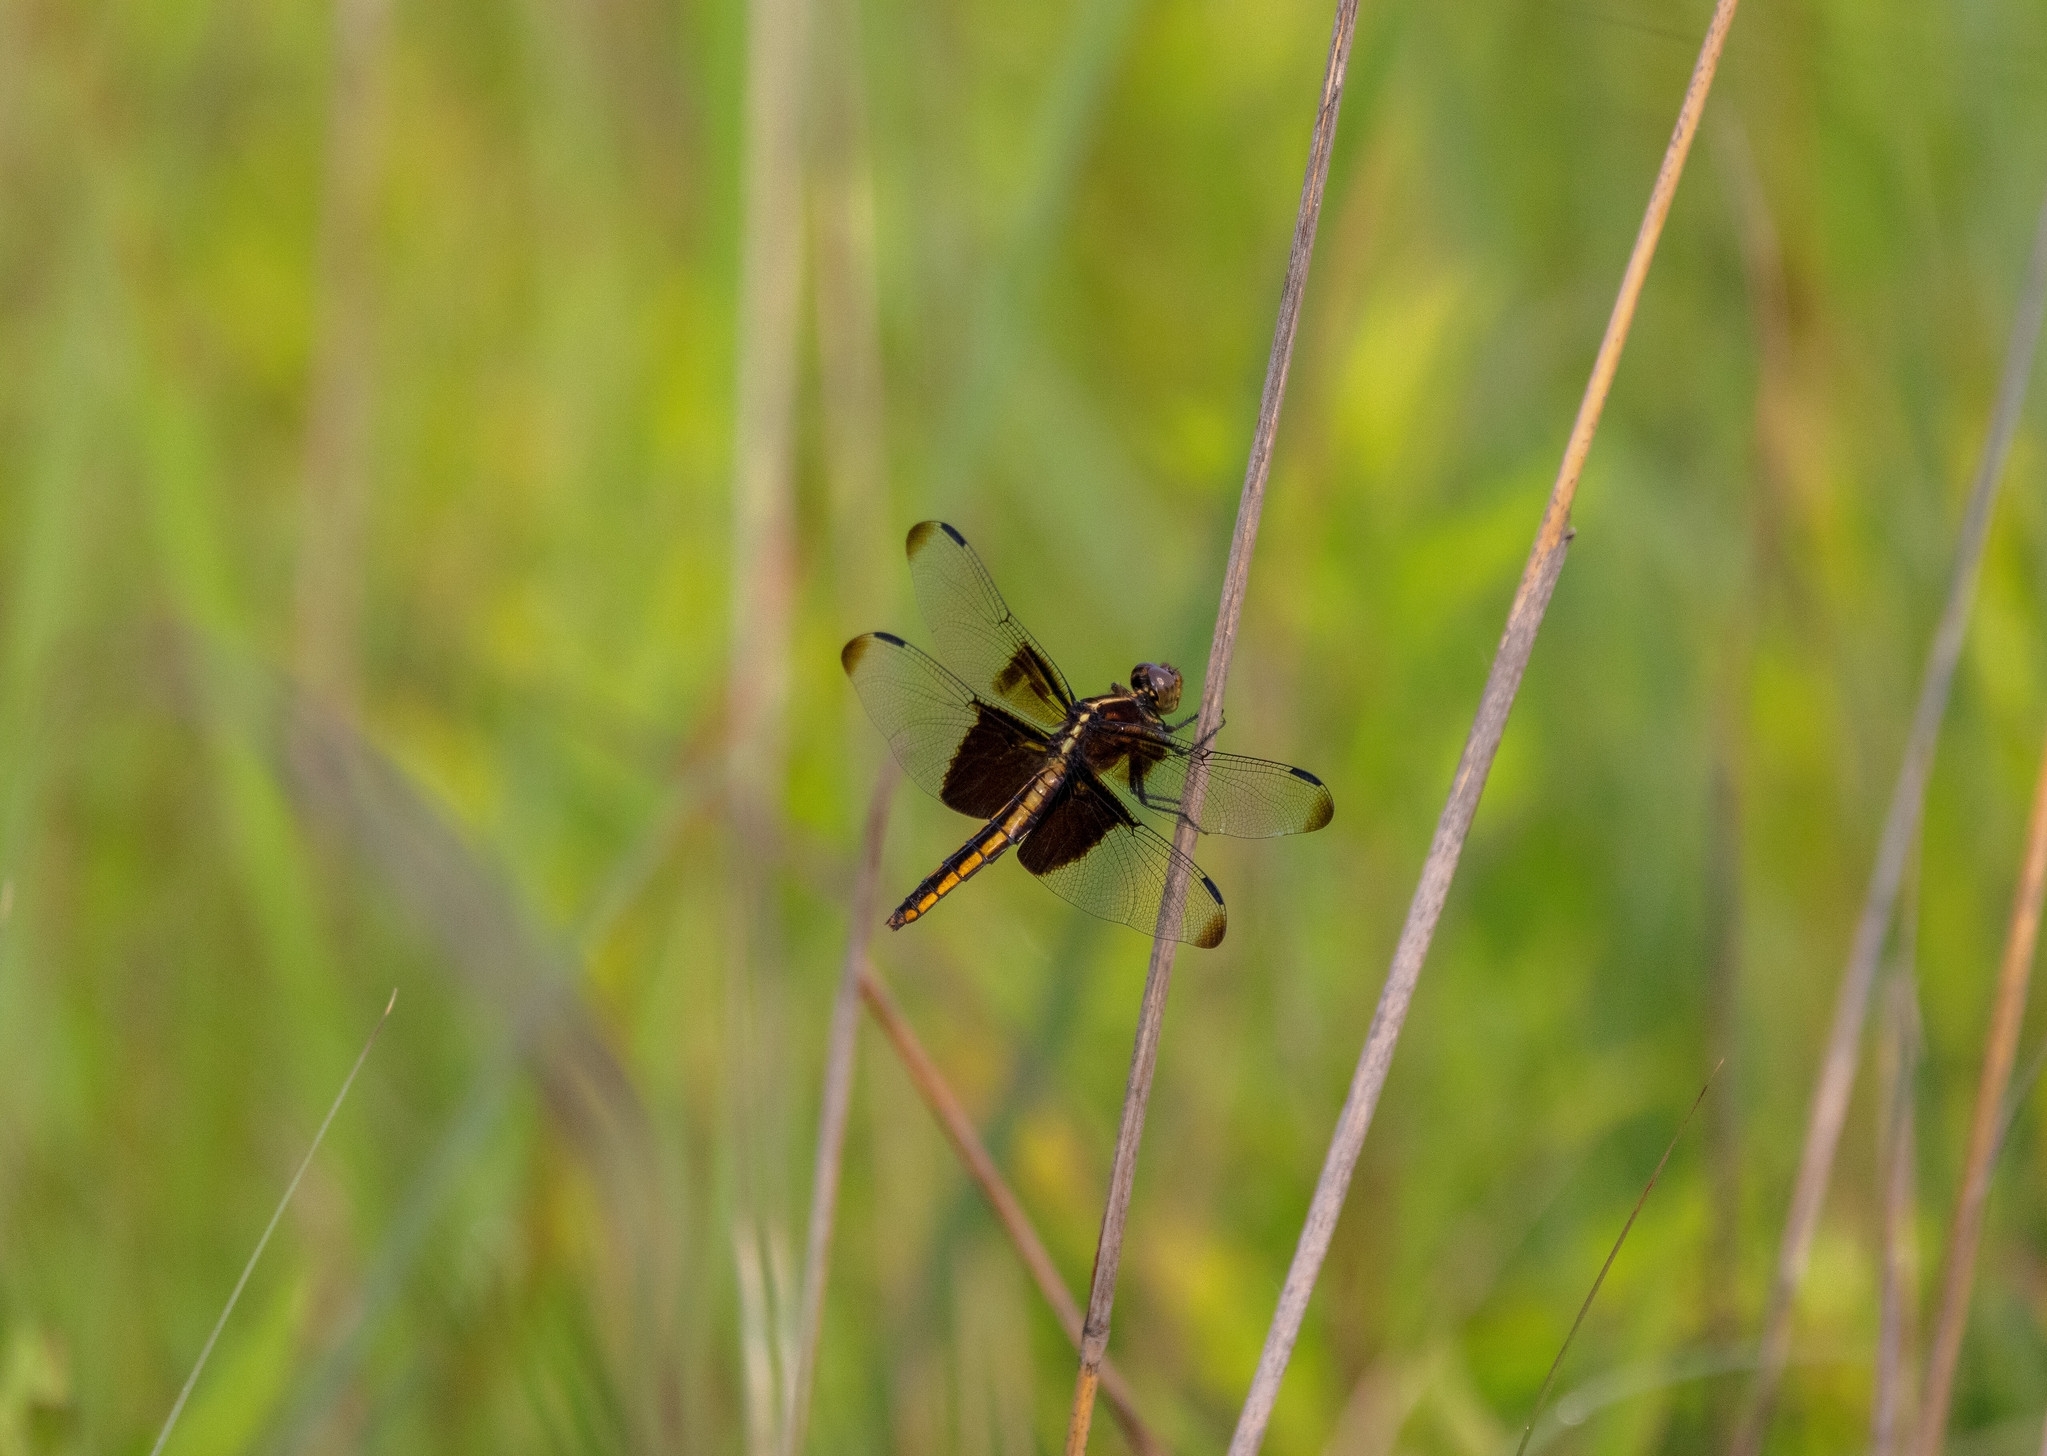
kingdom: Animalia
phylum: Arthropoda
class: Insecta
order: Odonata
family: Libellulidae
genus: Libellula
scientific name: Libellula luctuosa
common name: Widow skimmer
